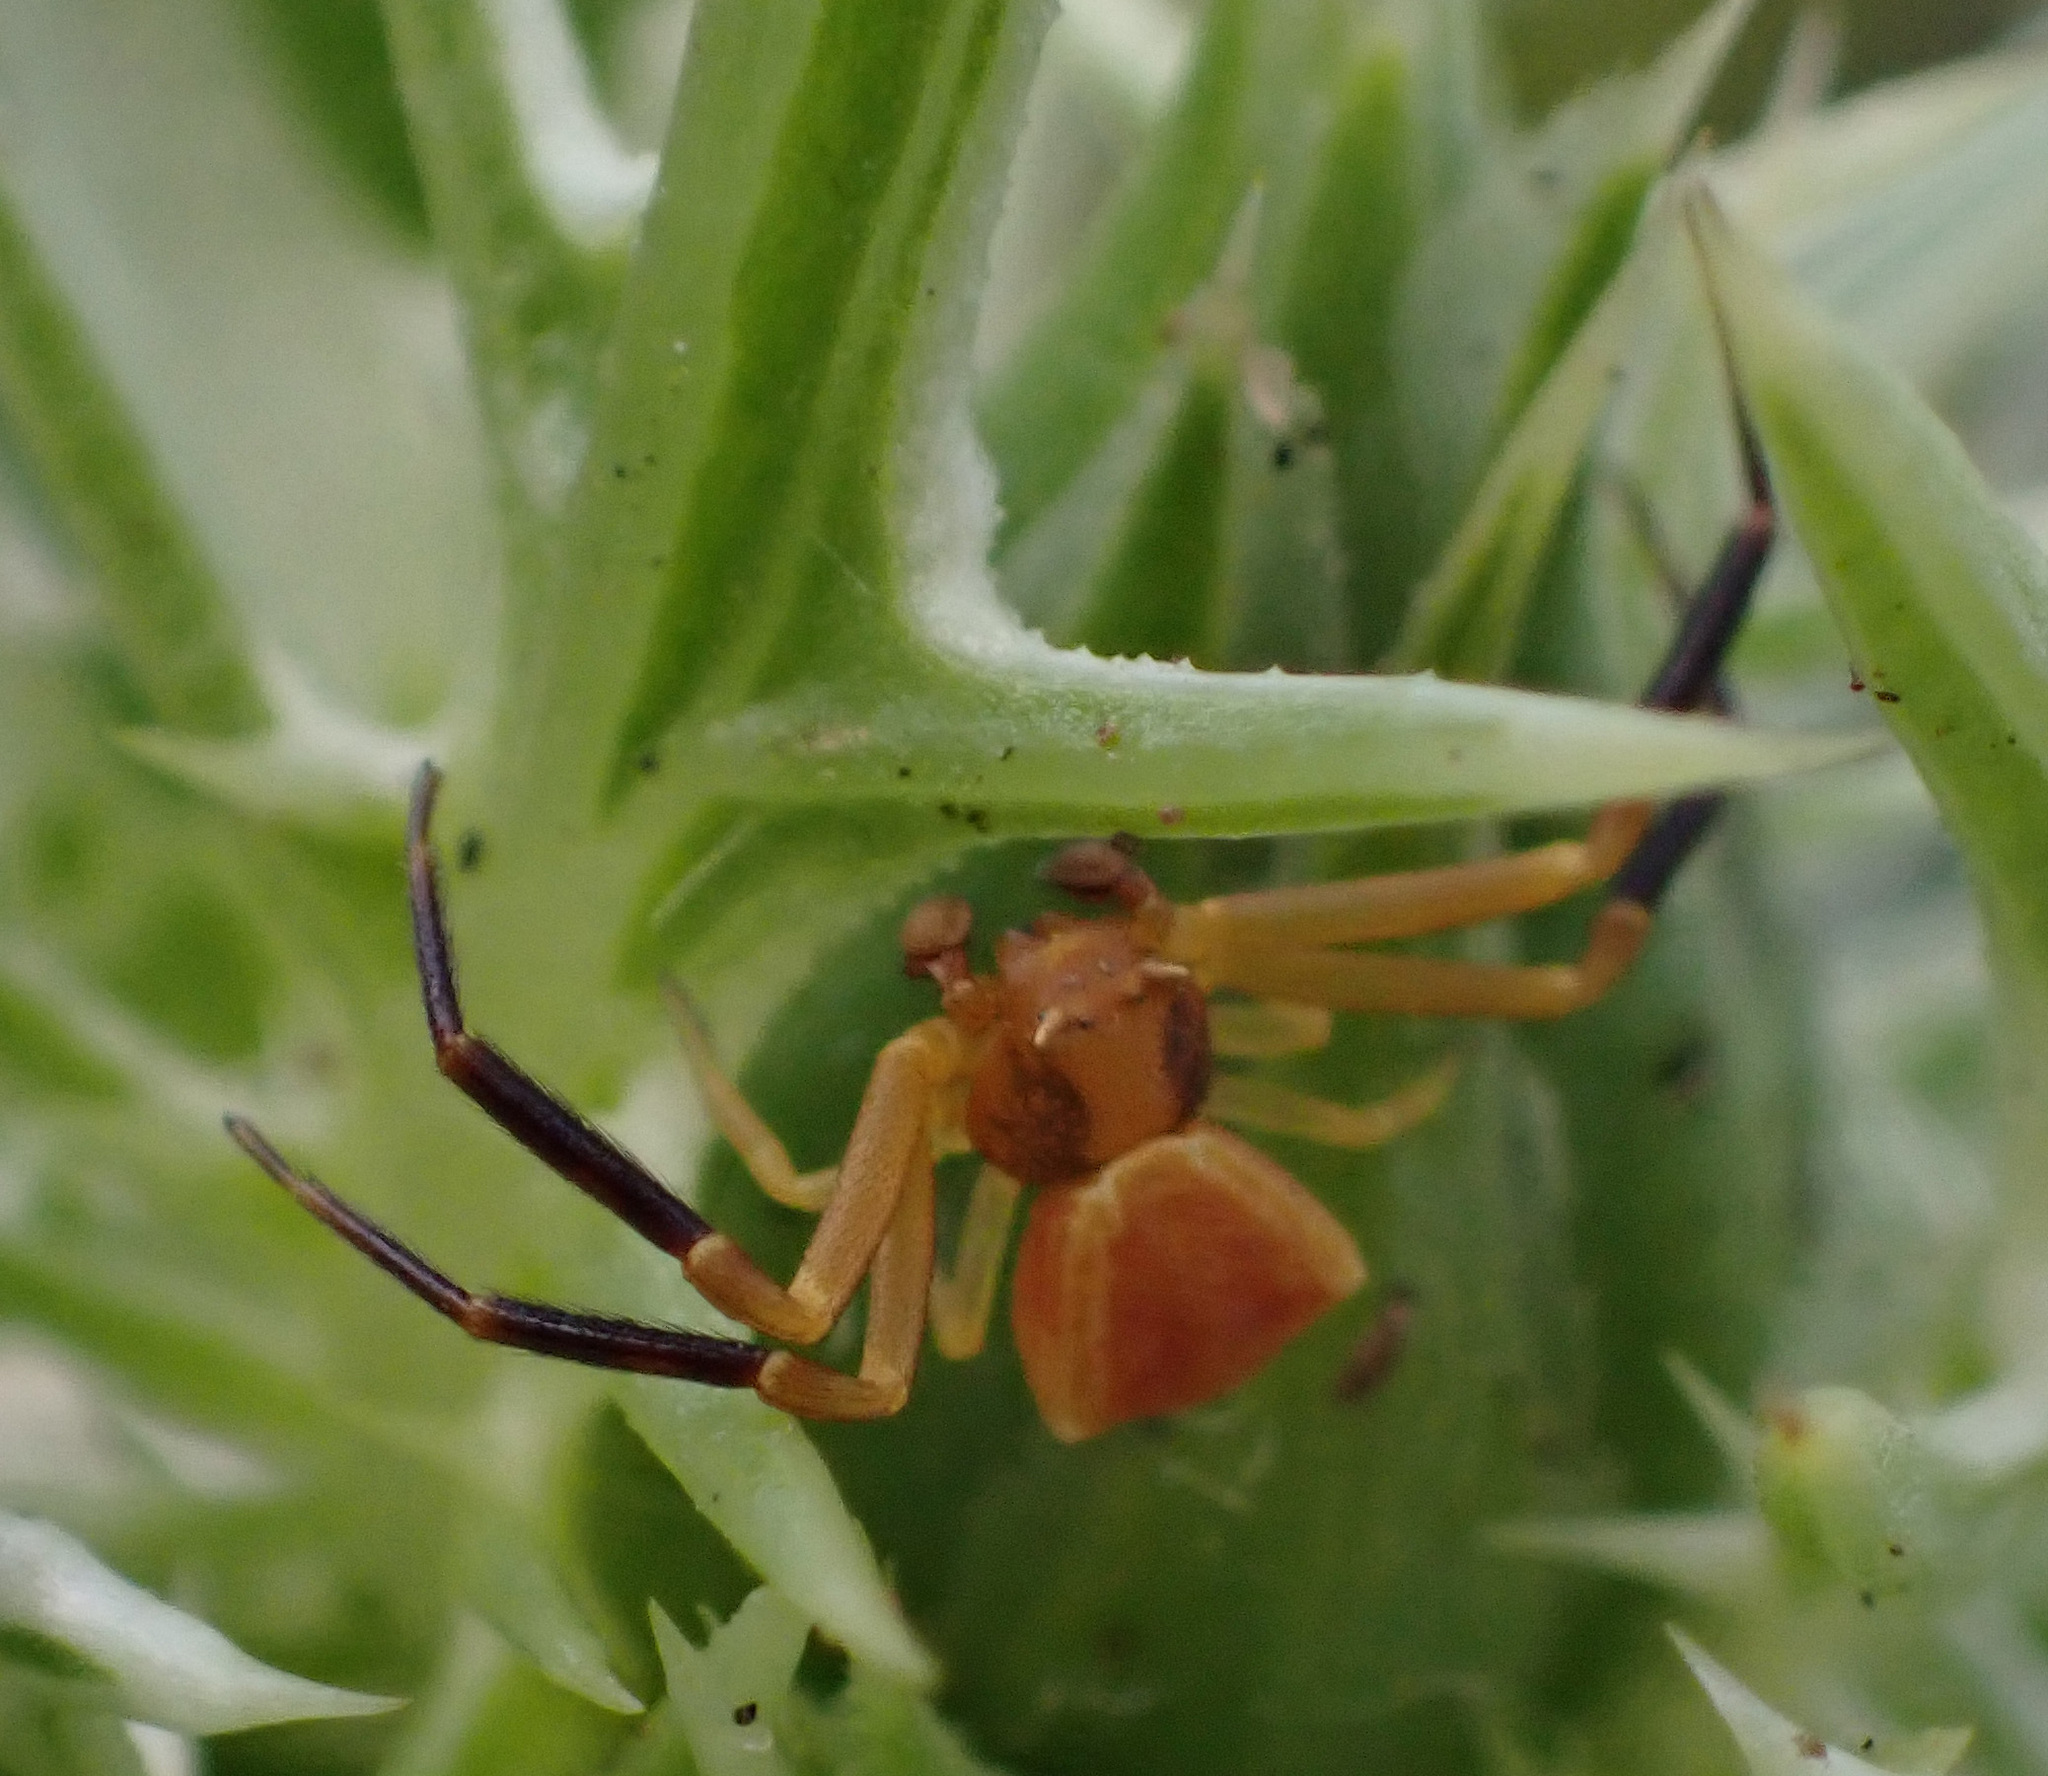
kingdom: Animalia
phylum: Arthropoda
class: Arachnida
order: Araneae
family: Thomisidae
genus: Thomisus
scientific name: Thomisus onustus
